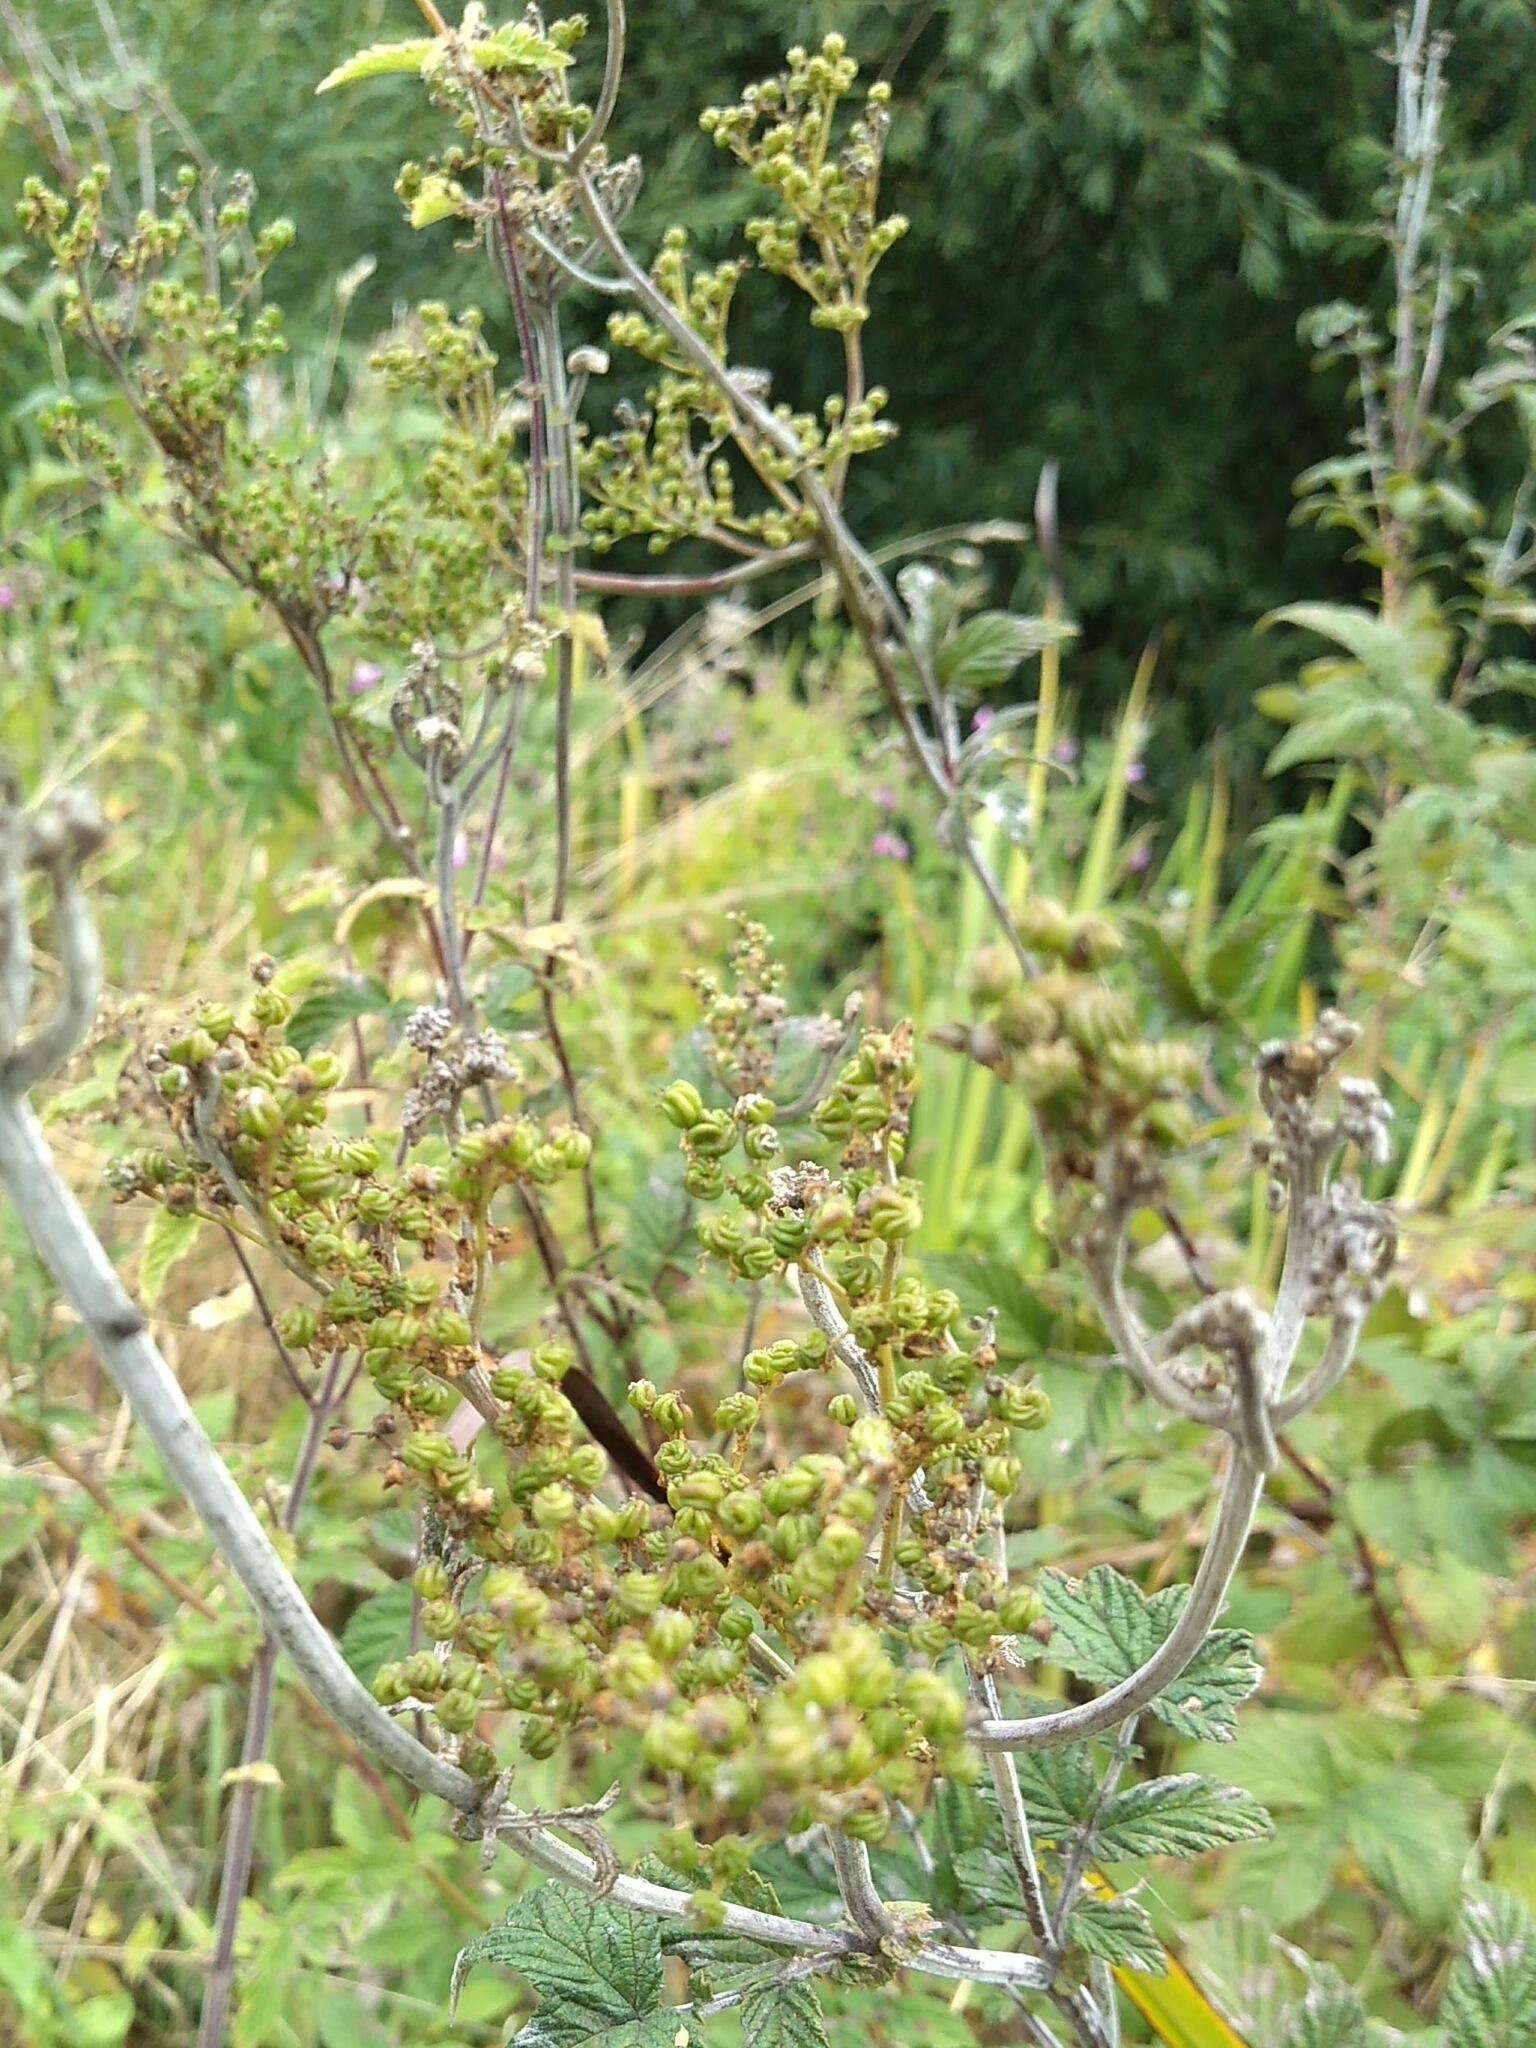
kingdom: Fungi
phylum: Ascomycota
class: Leotiomycetes
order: Helotiales
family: Erysiphaceae
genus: Podosphaera
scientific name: Podosphaera filipendulae
